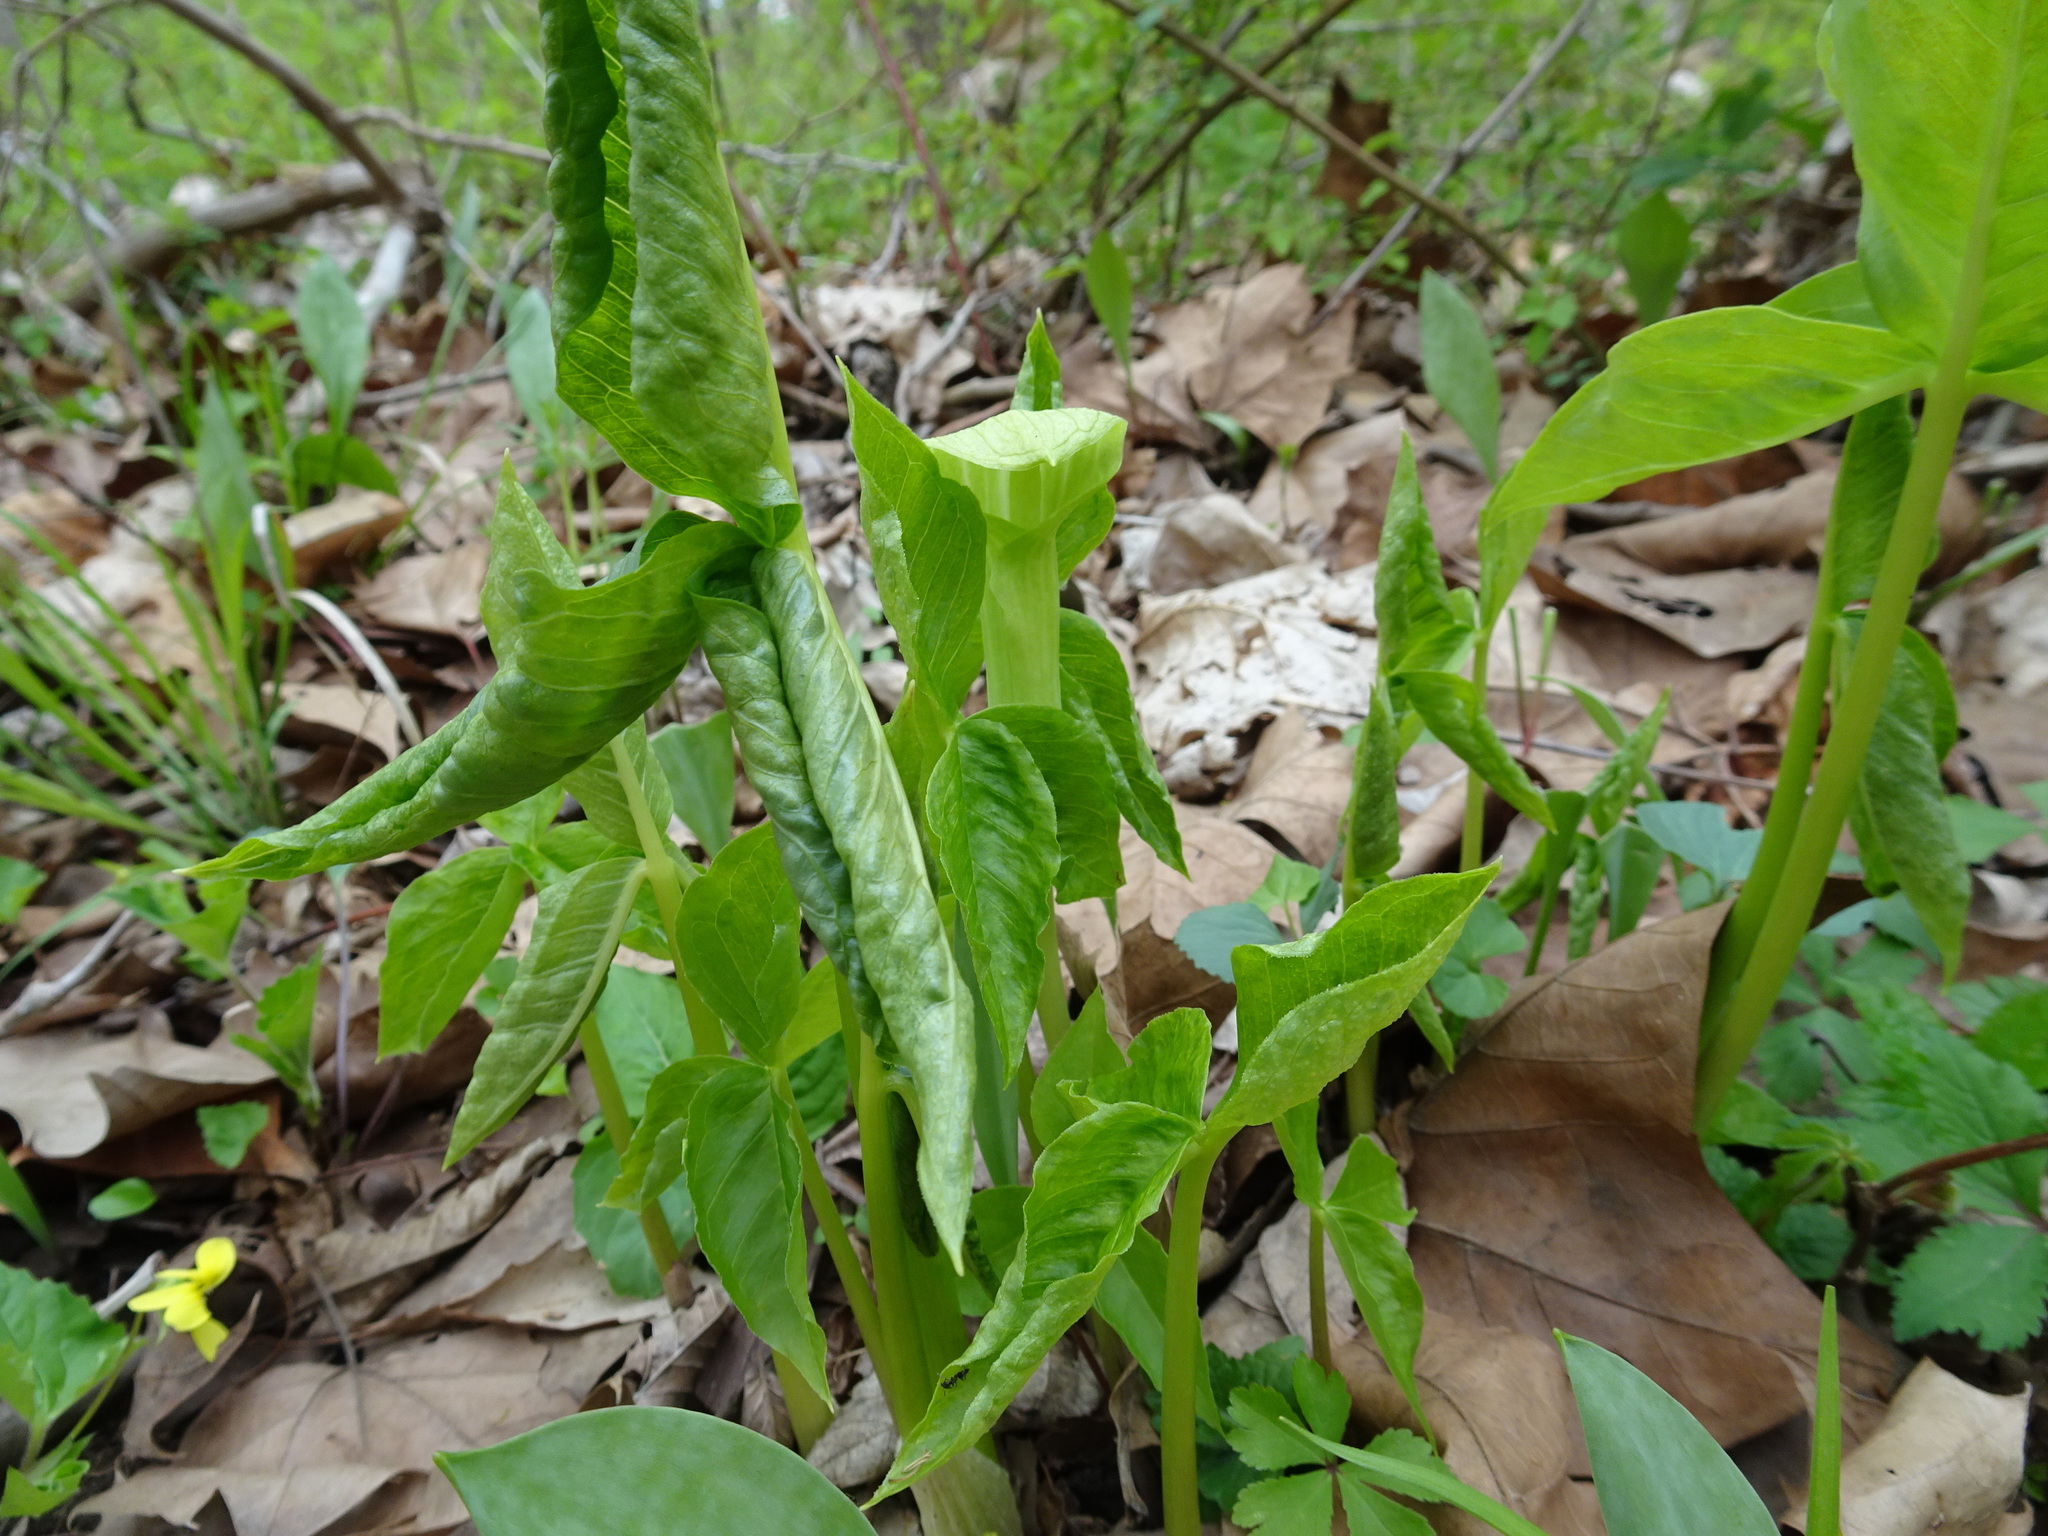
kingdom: Plantae
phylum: Tracheophyta
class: Liliopsida
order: Alismatales
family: Araceae
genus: Arisaema
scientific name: Arisaema triphyllum
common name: Jack-in-the-pulpit
